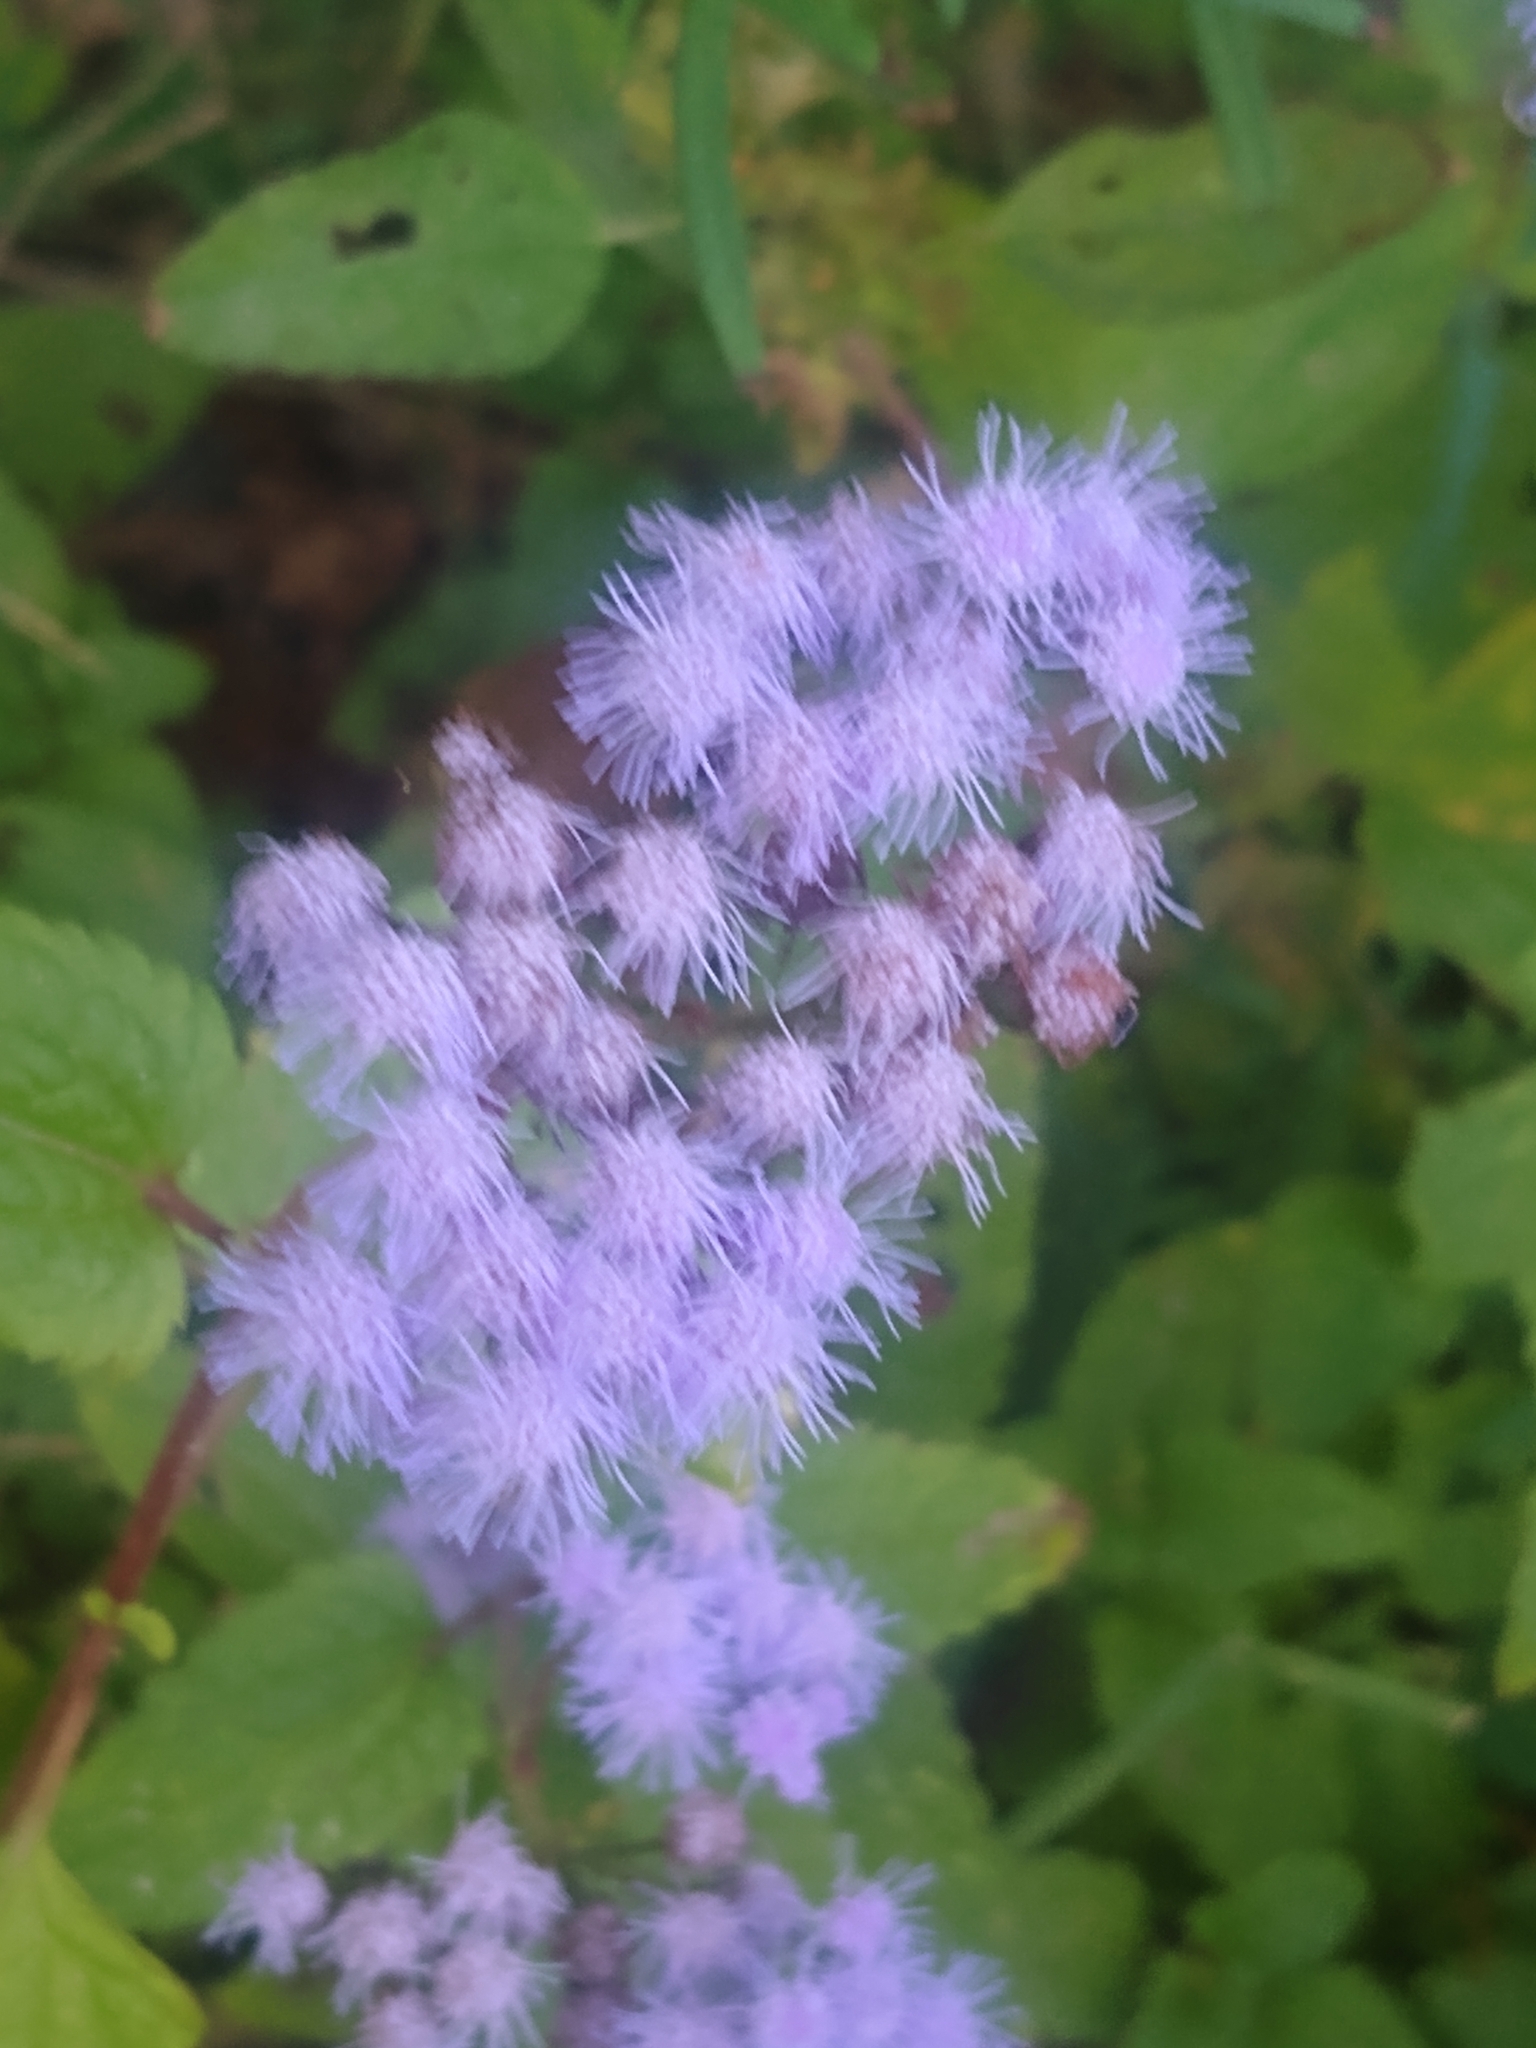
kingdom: Plantae
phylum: Tracheophyta
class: Magnoliopsida
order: Asterales
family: Asteraceae
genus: Conoclinium
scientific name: Conoclinium coelestinum
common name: Blue mistflower
